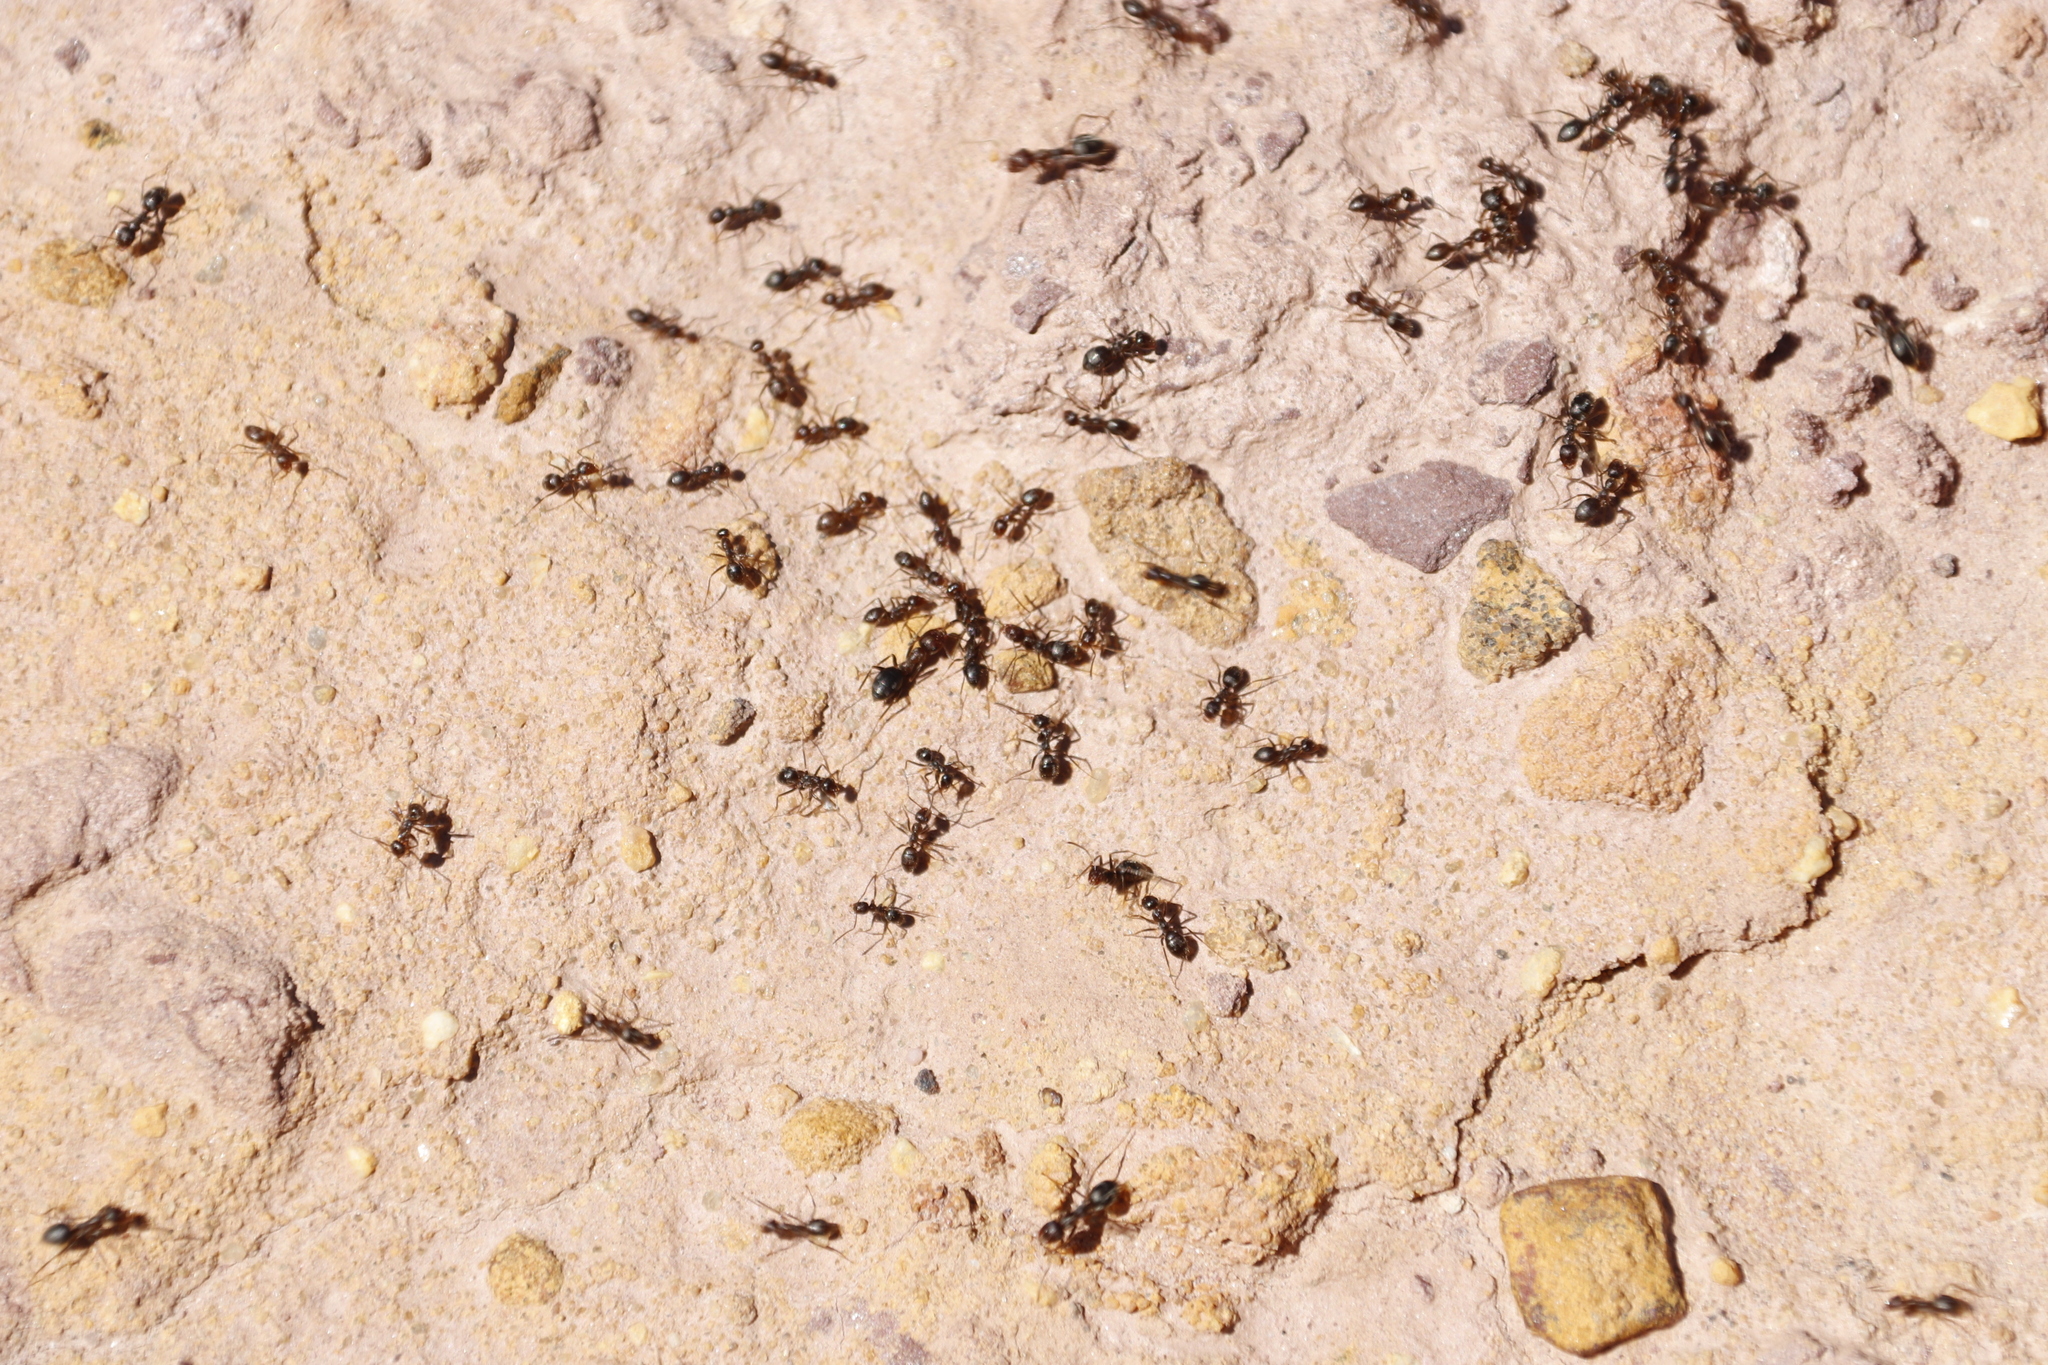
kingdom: Animalia
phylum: Arthropoda
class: Insecta
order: Hymenoptera
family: Formicidae
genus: Anoplolepis
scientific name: Anoplolepis steingroeveri
